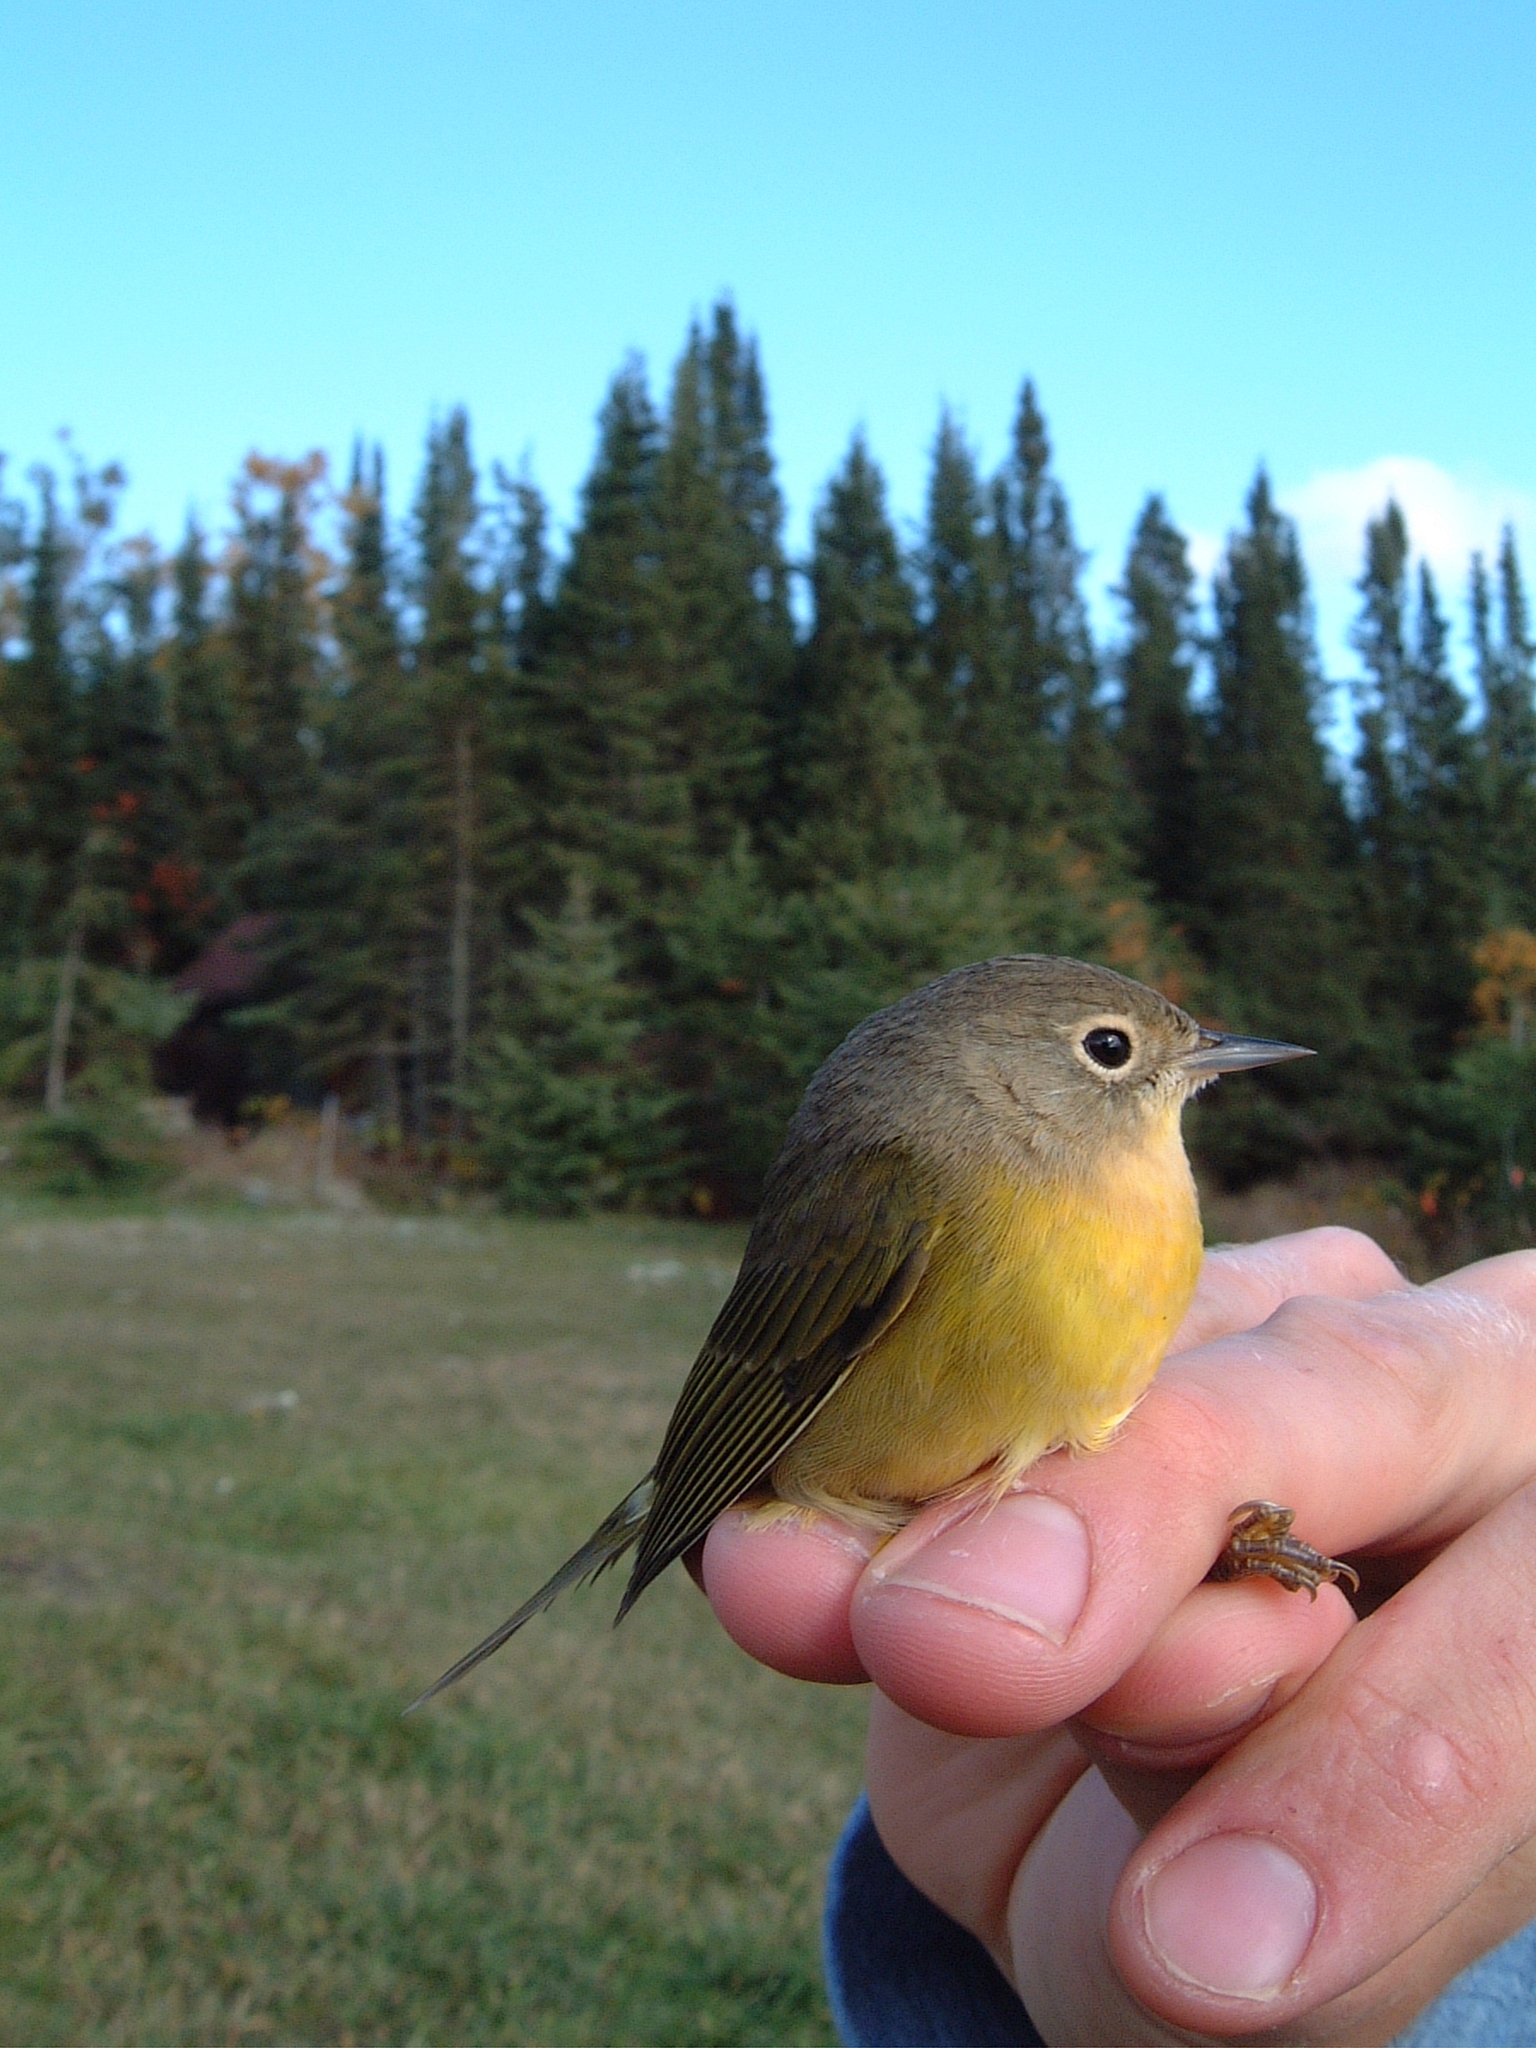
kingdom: Animalia
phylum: Chordata
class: Aves
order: Passeriformes
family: Parulidae
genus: Leiothlypis
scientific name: Leiothlypis ruficapilla
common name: Nashville warbler
